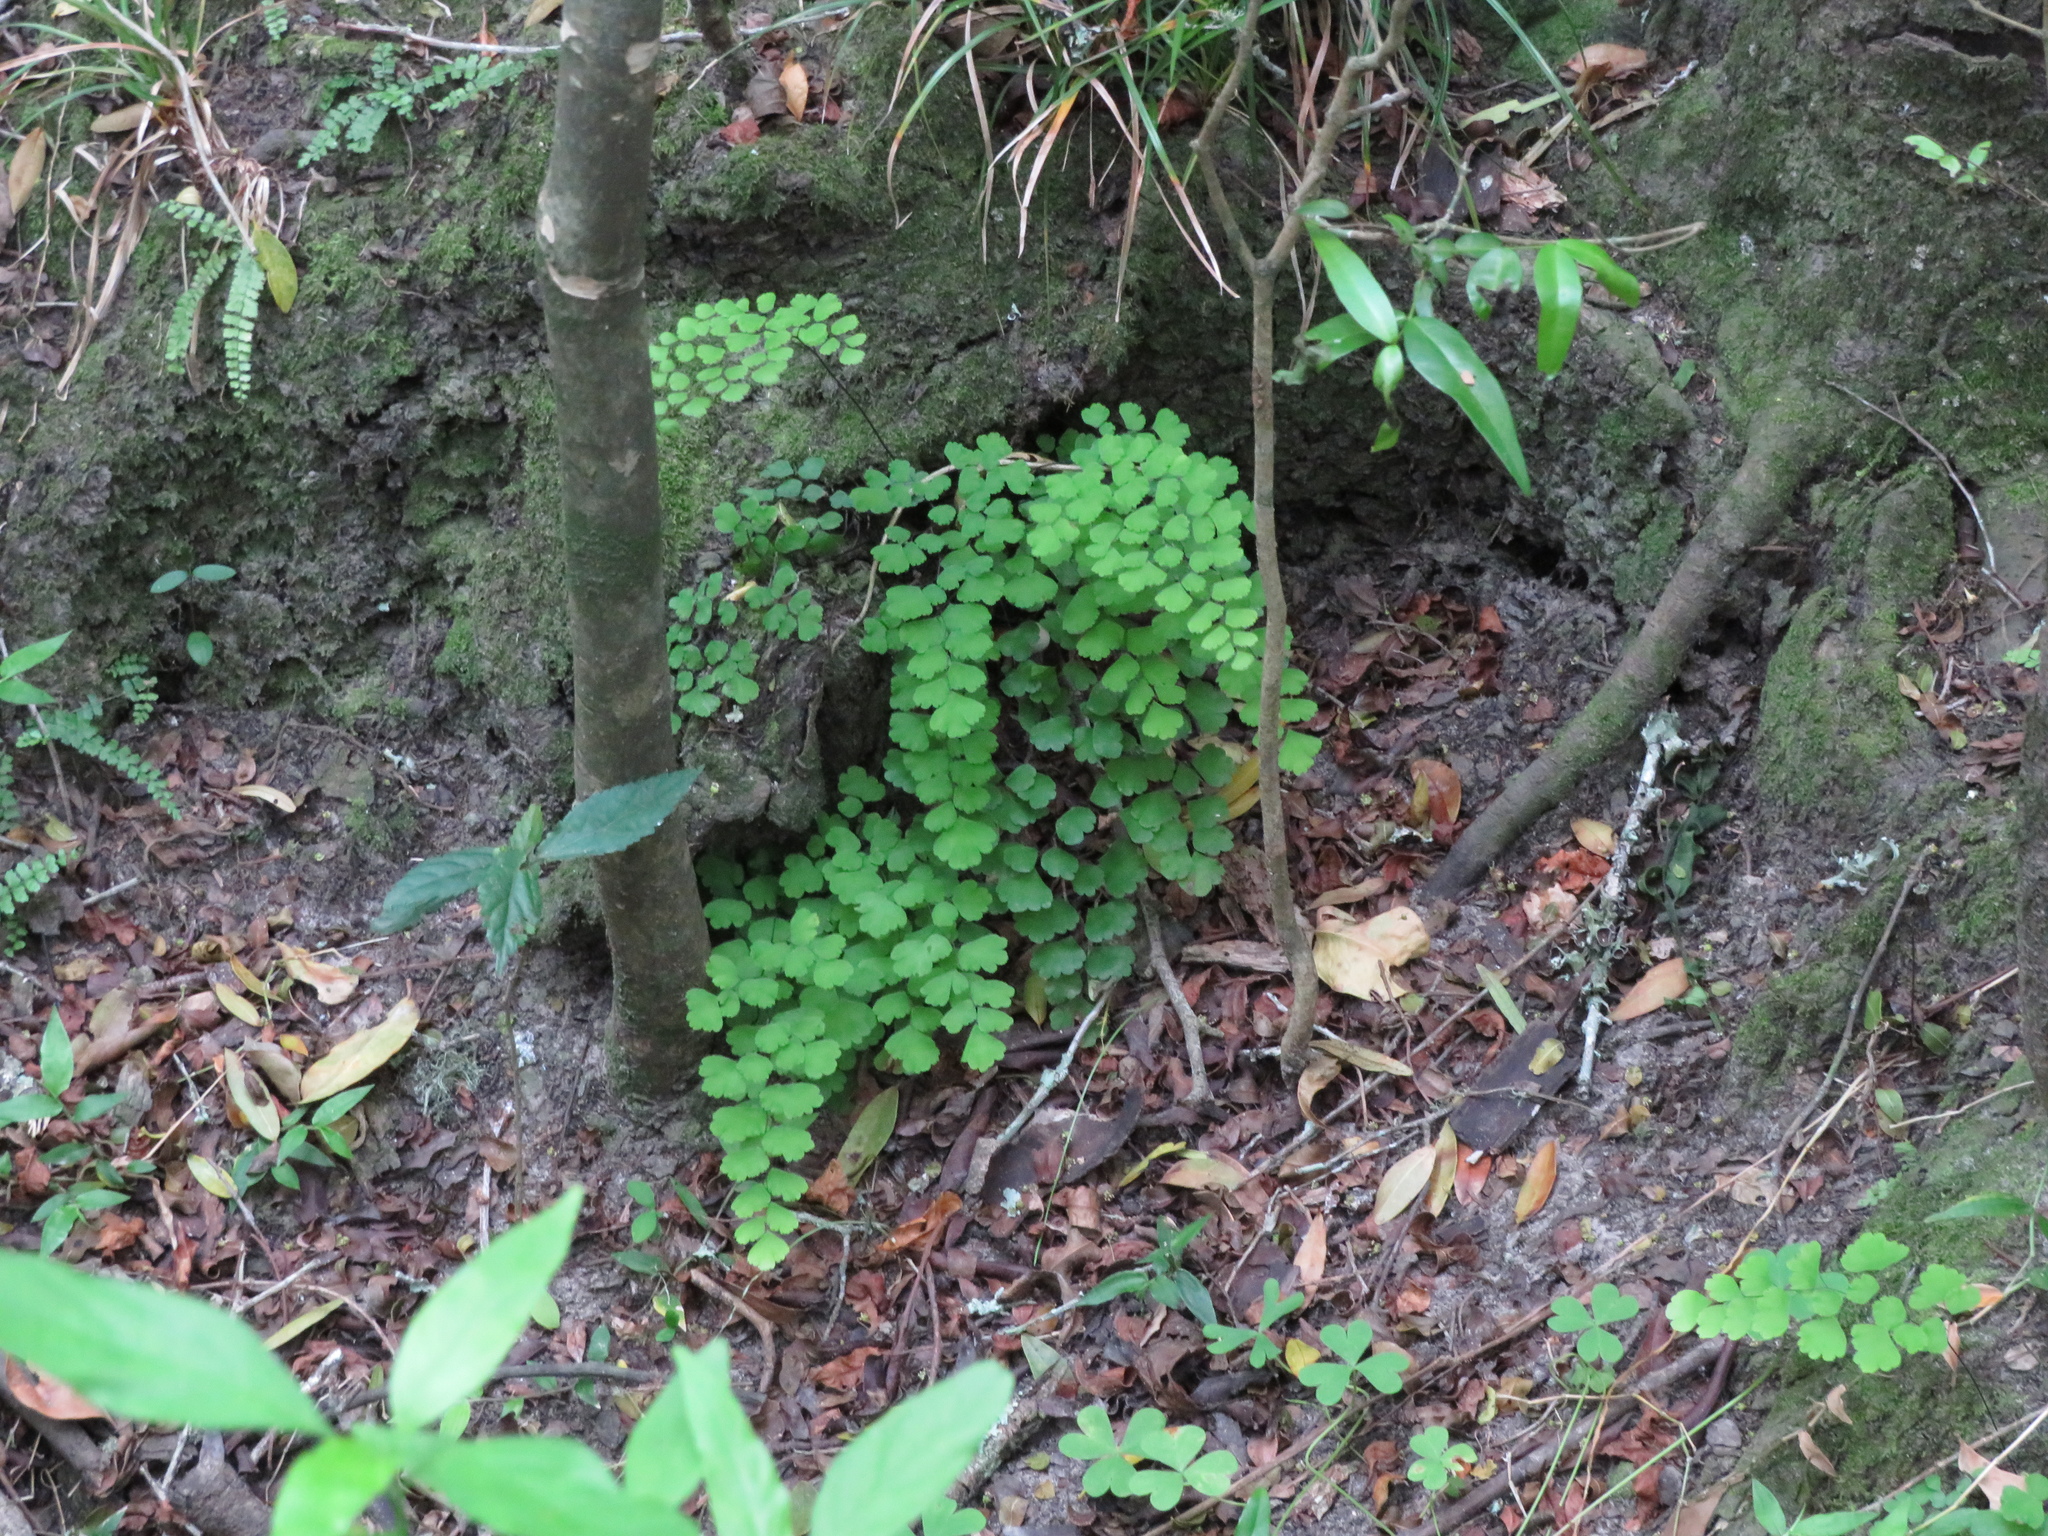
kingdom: Plantae
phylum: Tracheophyta
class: Polypodiopsida
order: Polypodiales
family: Pteridaceae
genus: Adiantum
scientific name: Adiantum raddianum
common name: Delta maidenhair fern
